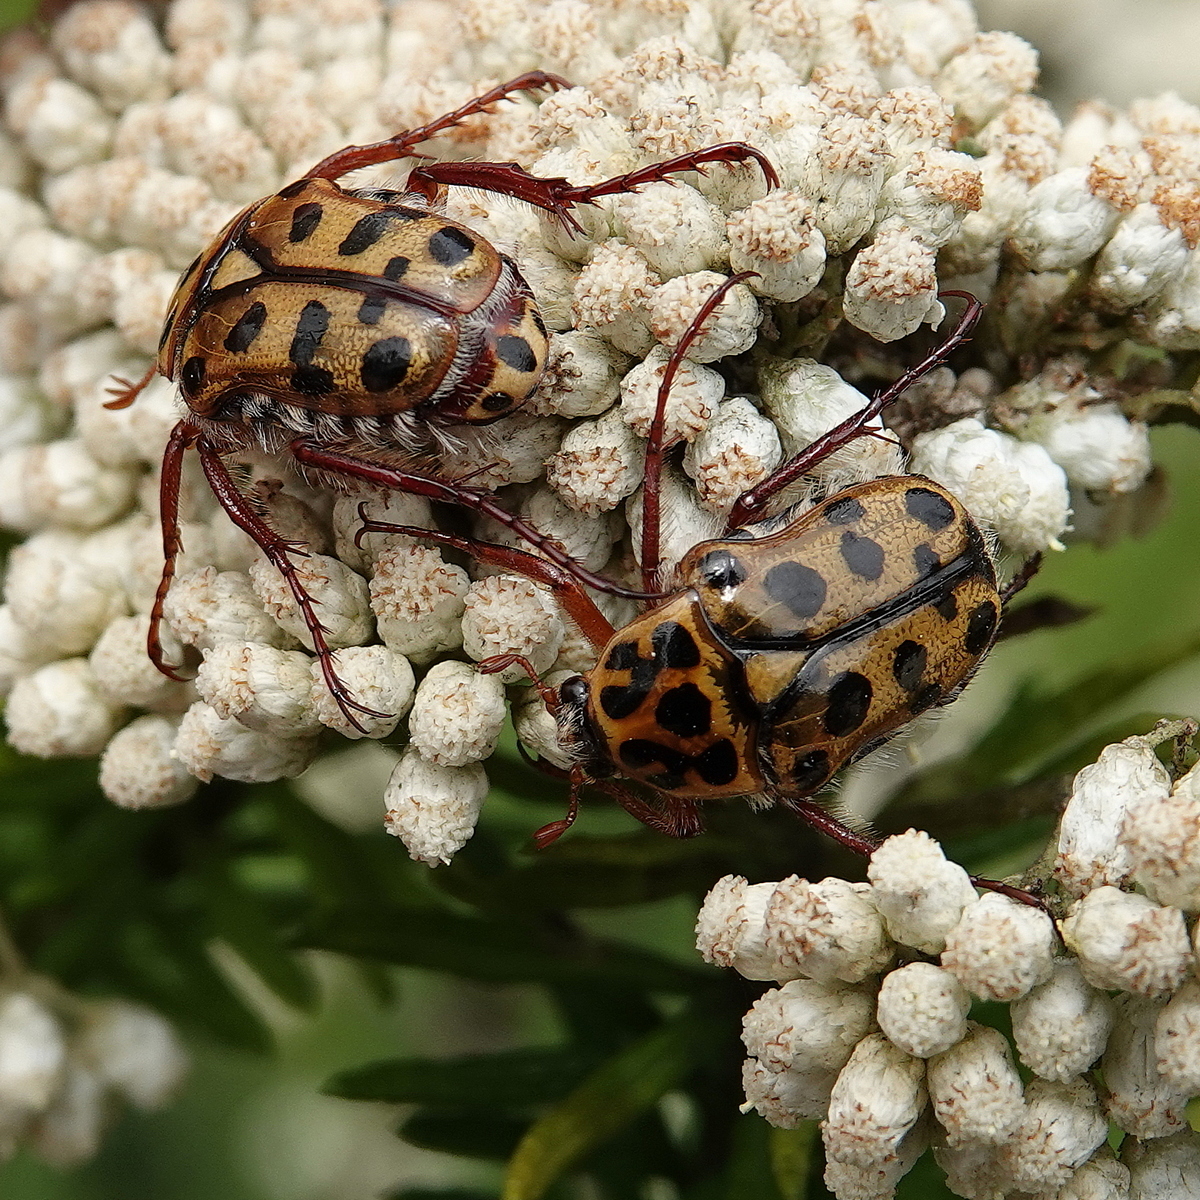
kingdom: Animalia
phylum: Arthropoda
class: Insecta
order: Coleoptera
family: Scarabaeidae
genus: Neorrhina
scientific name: Neorrhina punctatum
